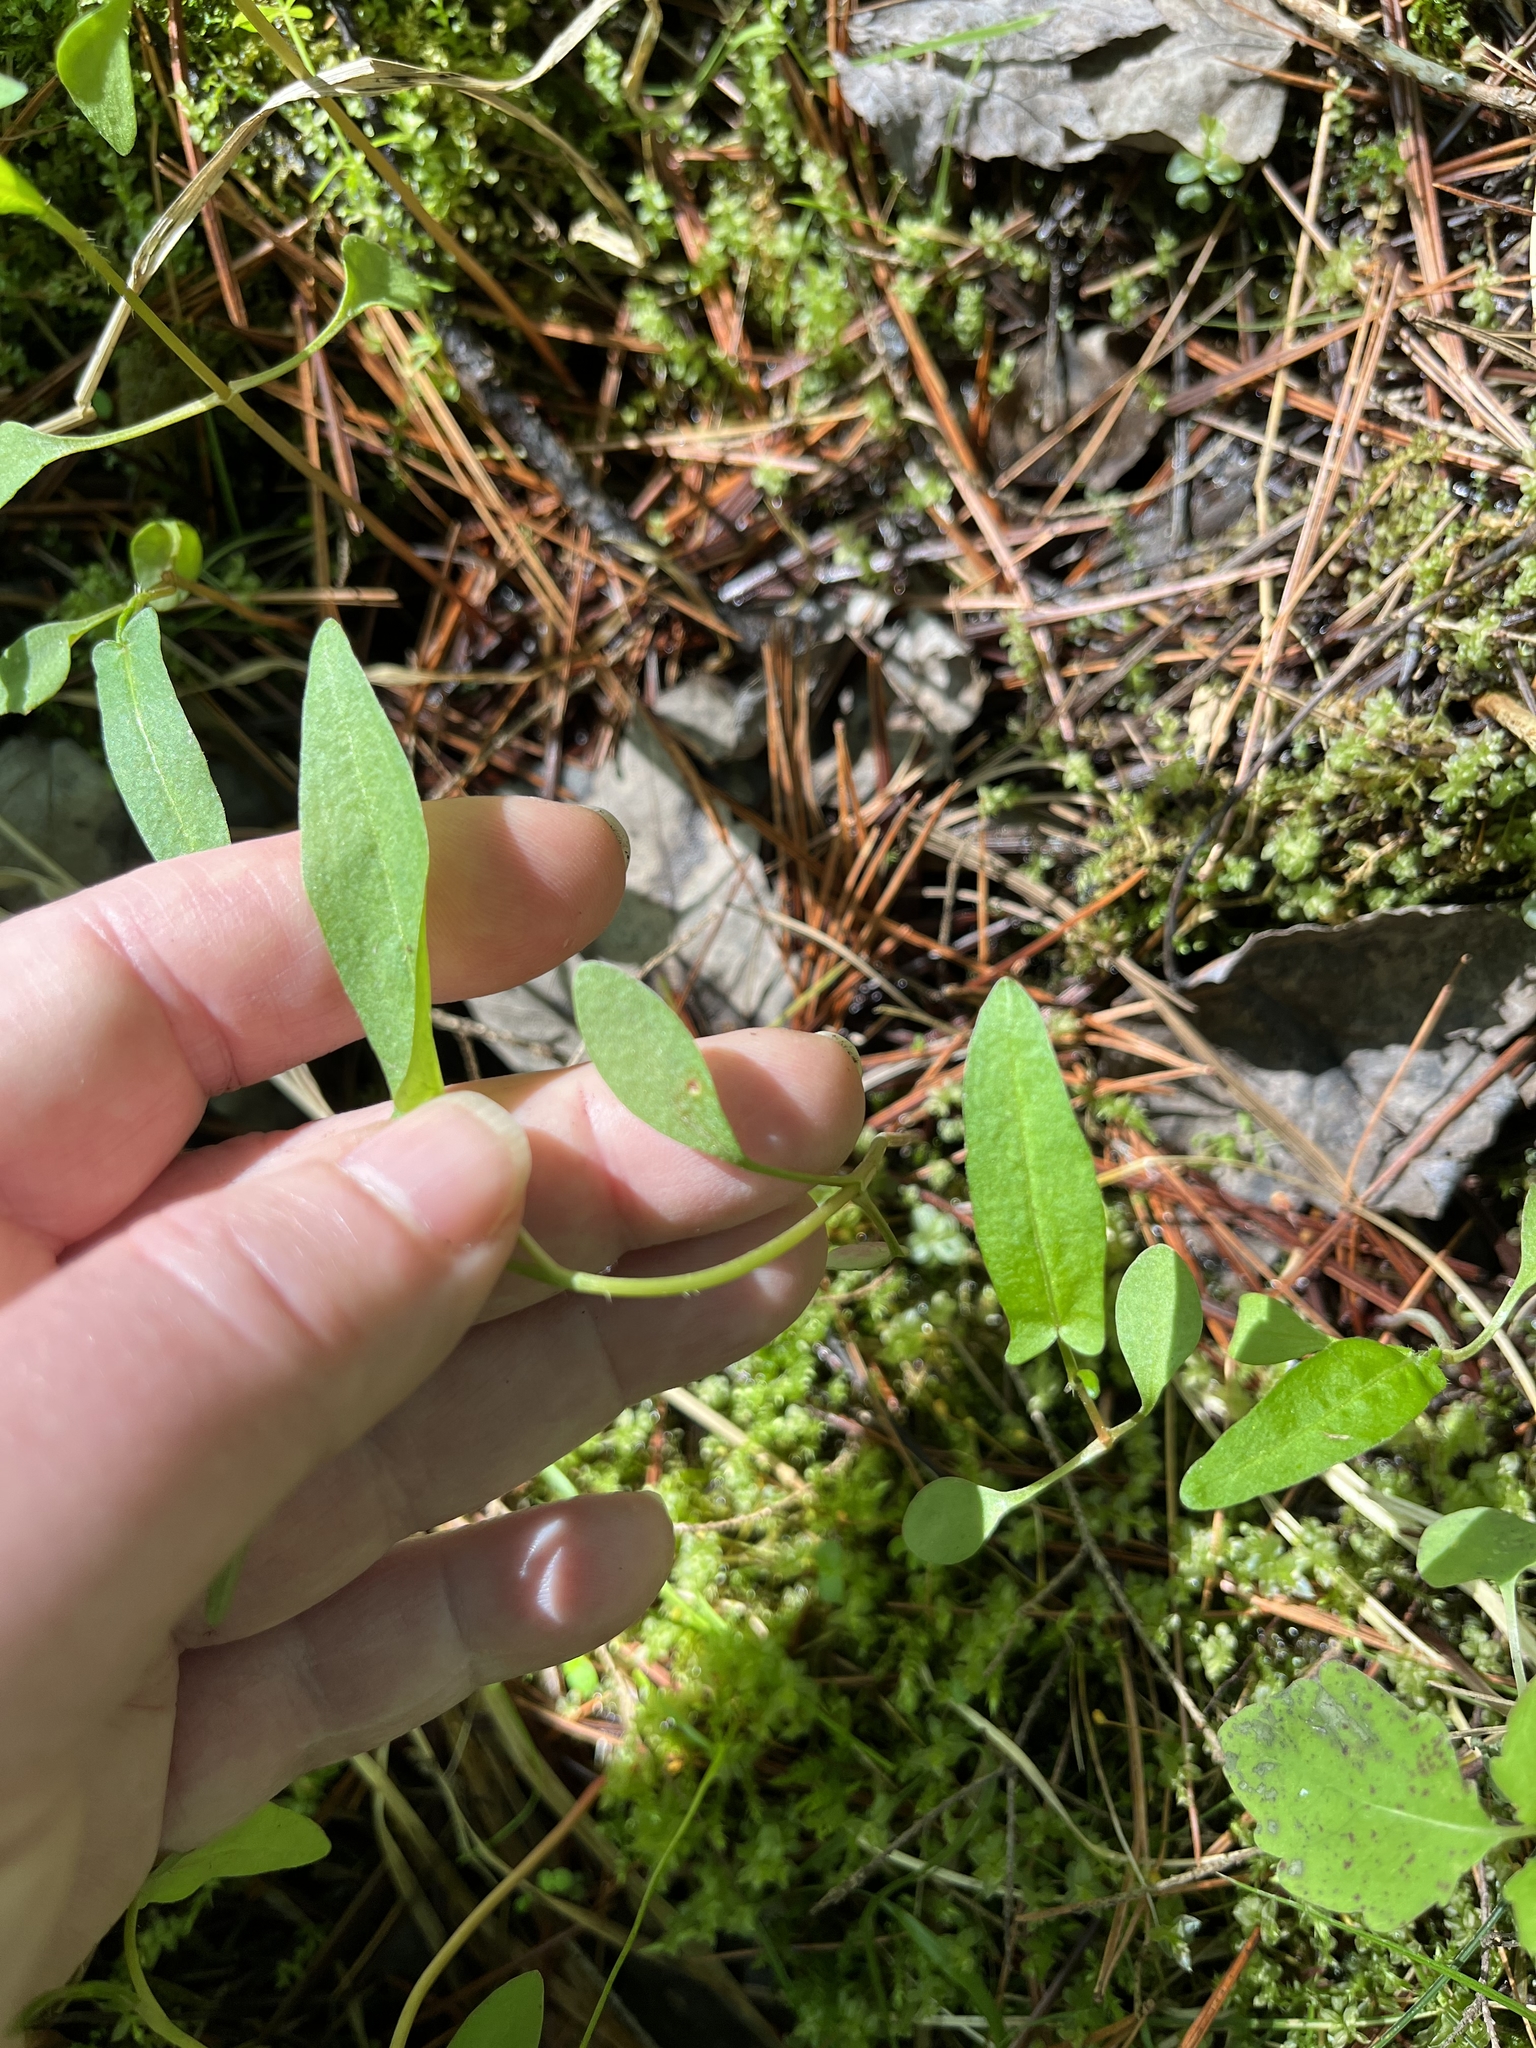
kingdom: Plantae
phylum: Tracheophyta
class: Magnoliopsida
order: Caryophyllales
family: Polygonaceae
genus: Persicaria
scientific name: Persicaria sagittata
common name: American tearthumb
